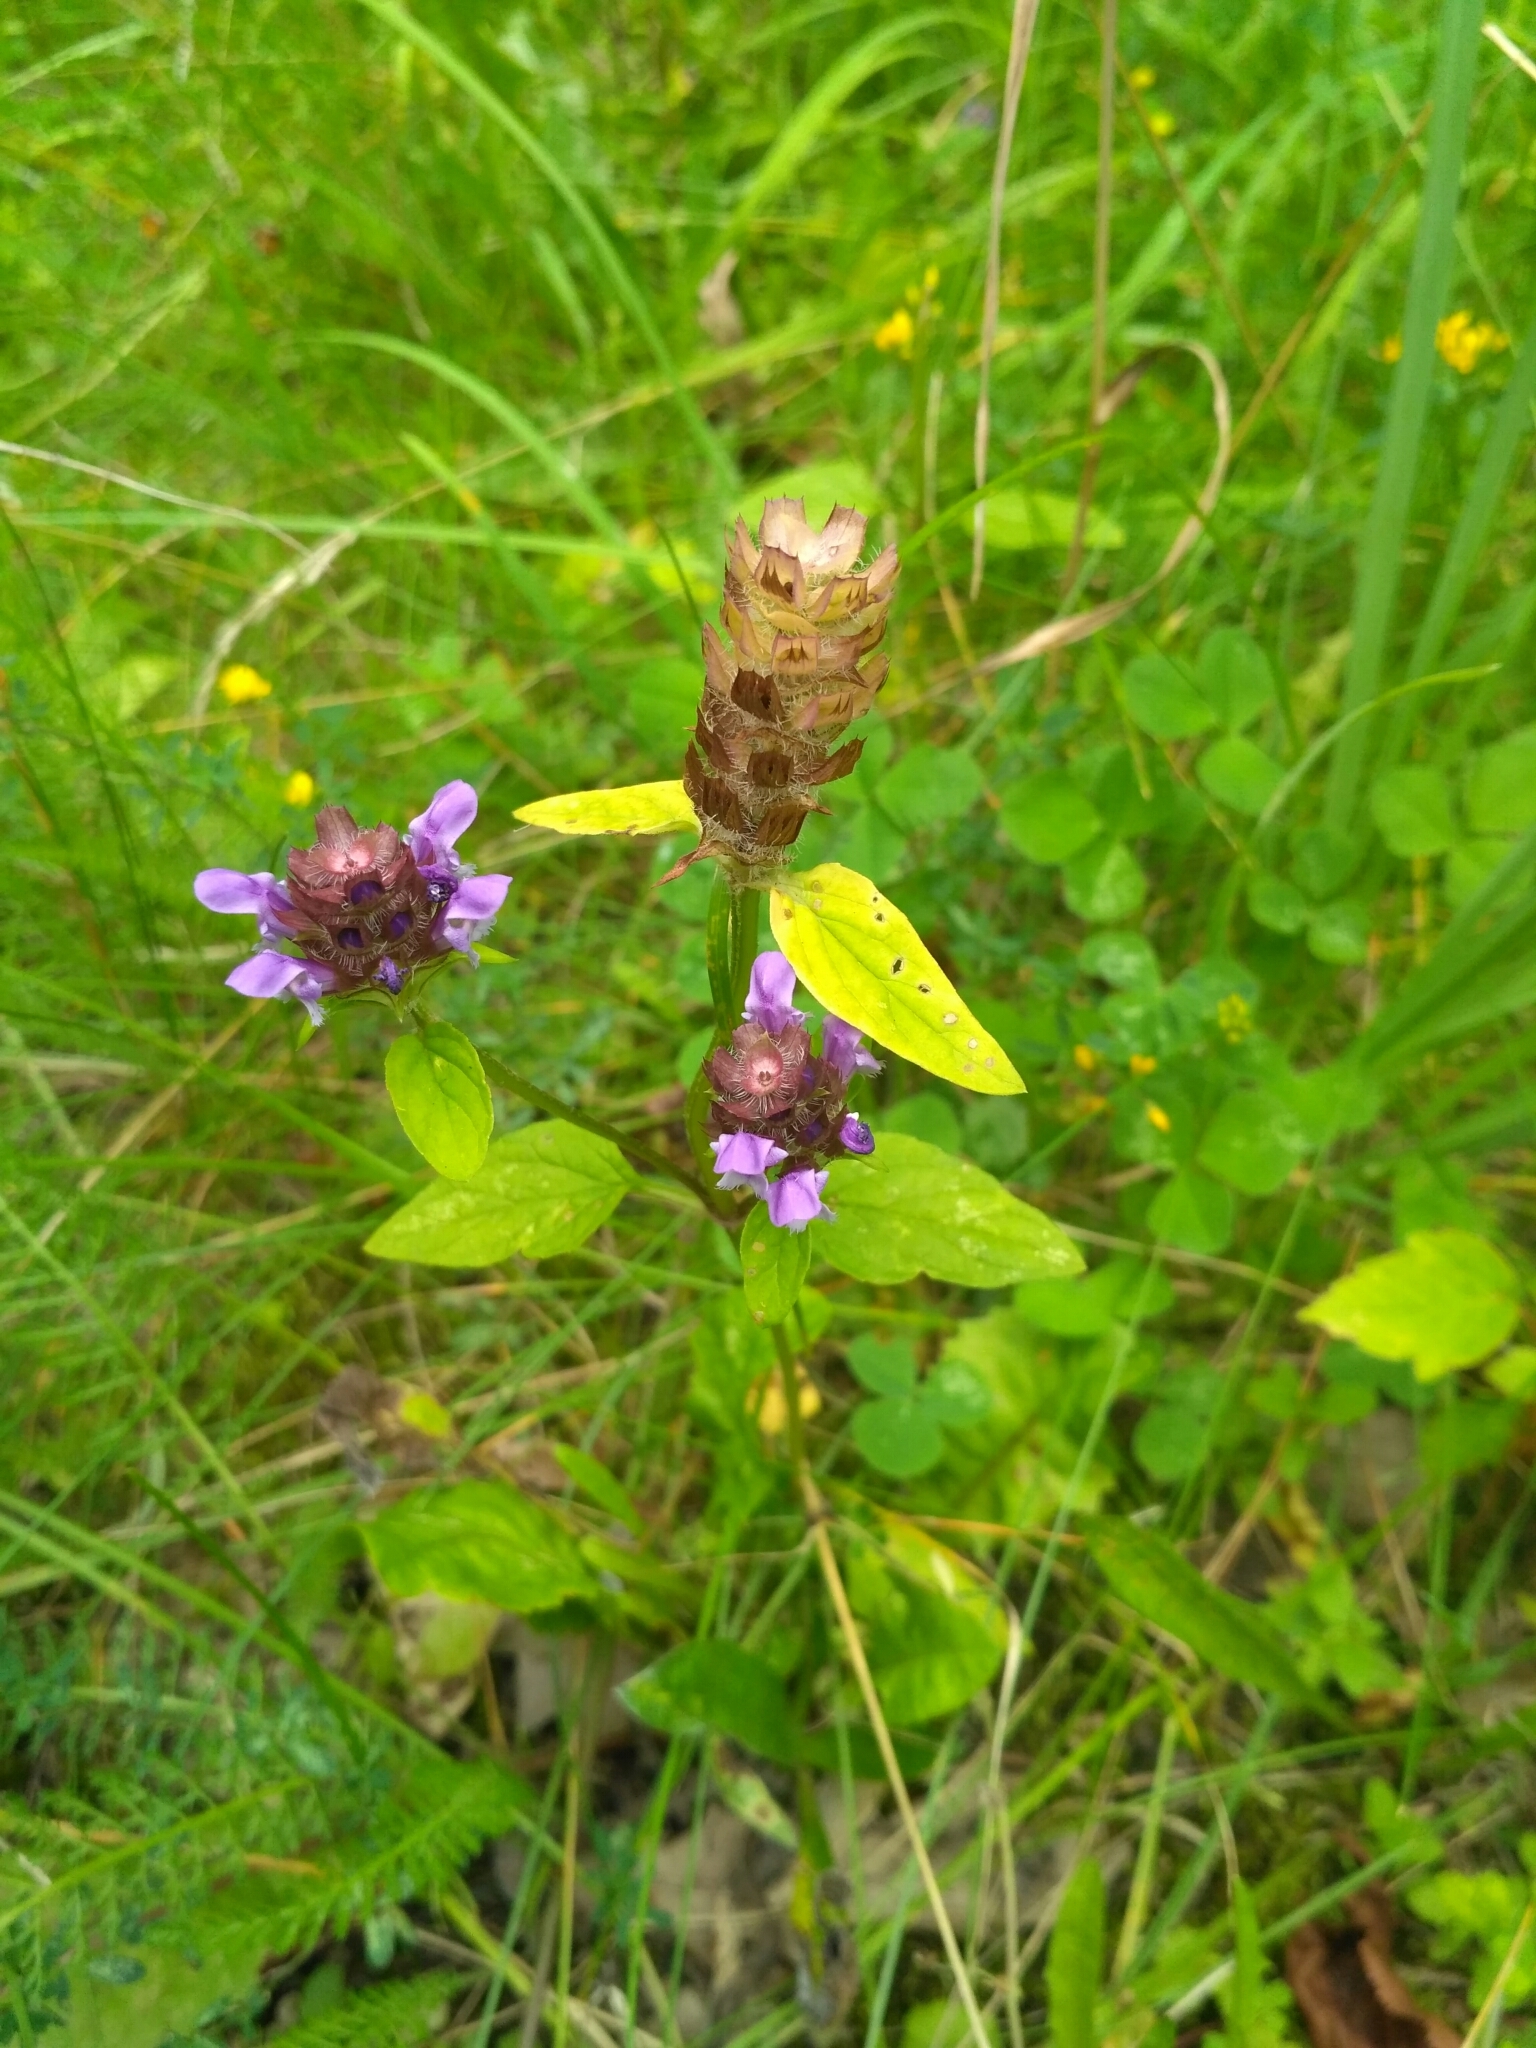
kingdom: Plantae
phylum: Tracheophyta
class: Magnoliopsida
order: Lamiales
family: Lamiaceae
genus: Prunella
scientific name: Prunella vulgaris
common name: Heal-all
